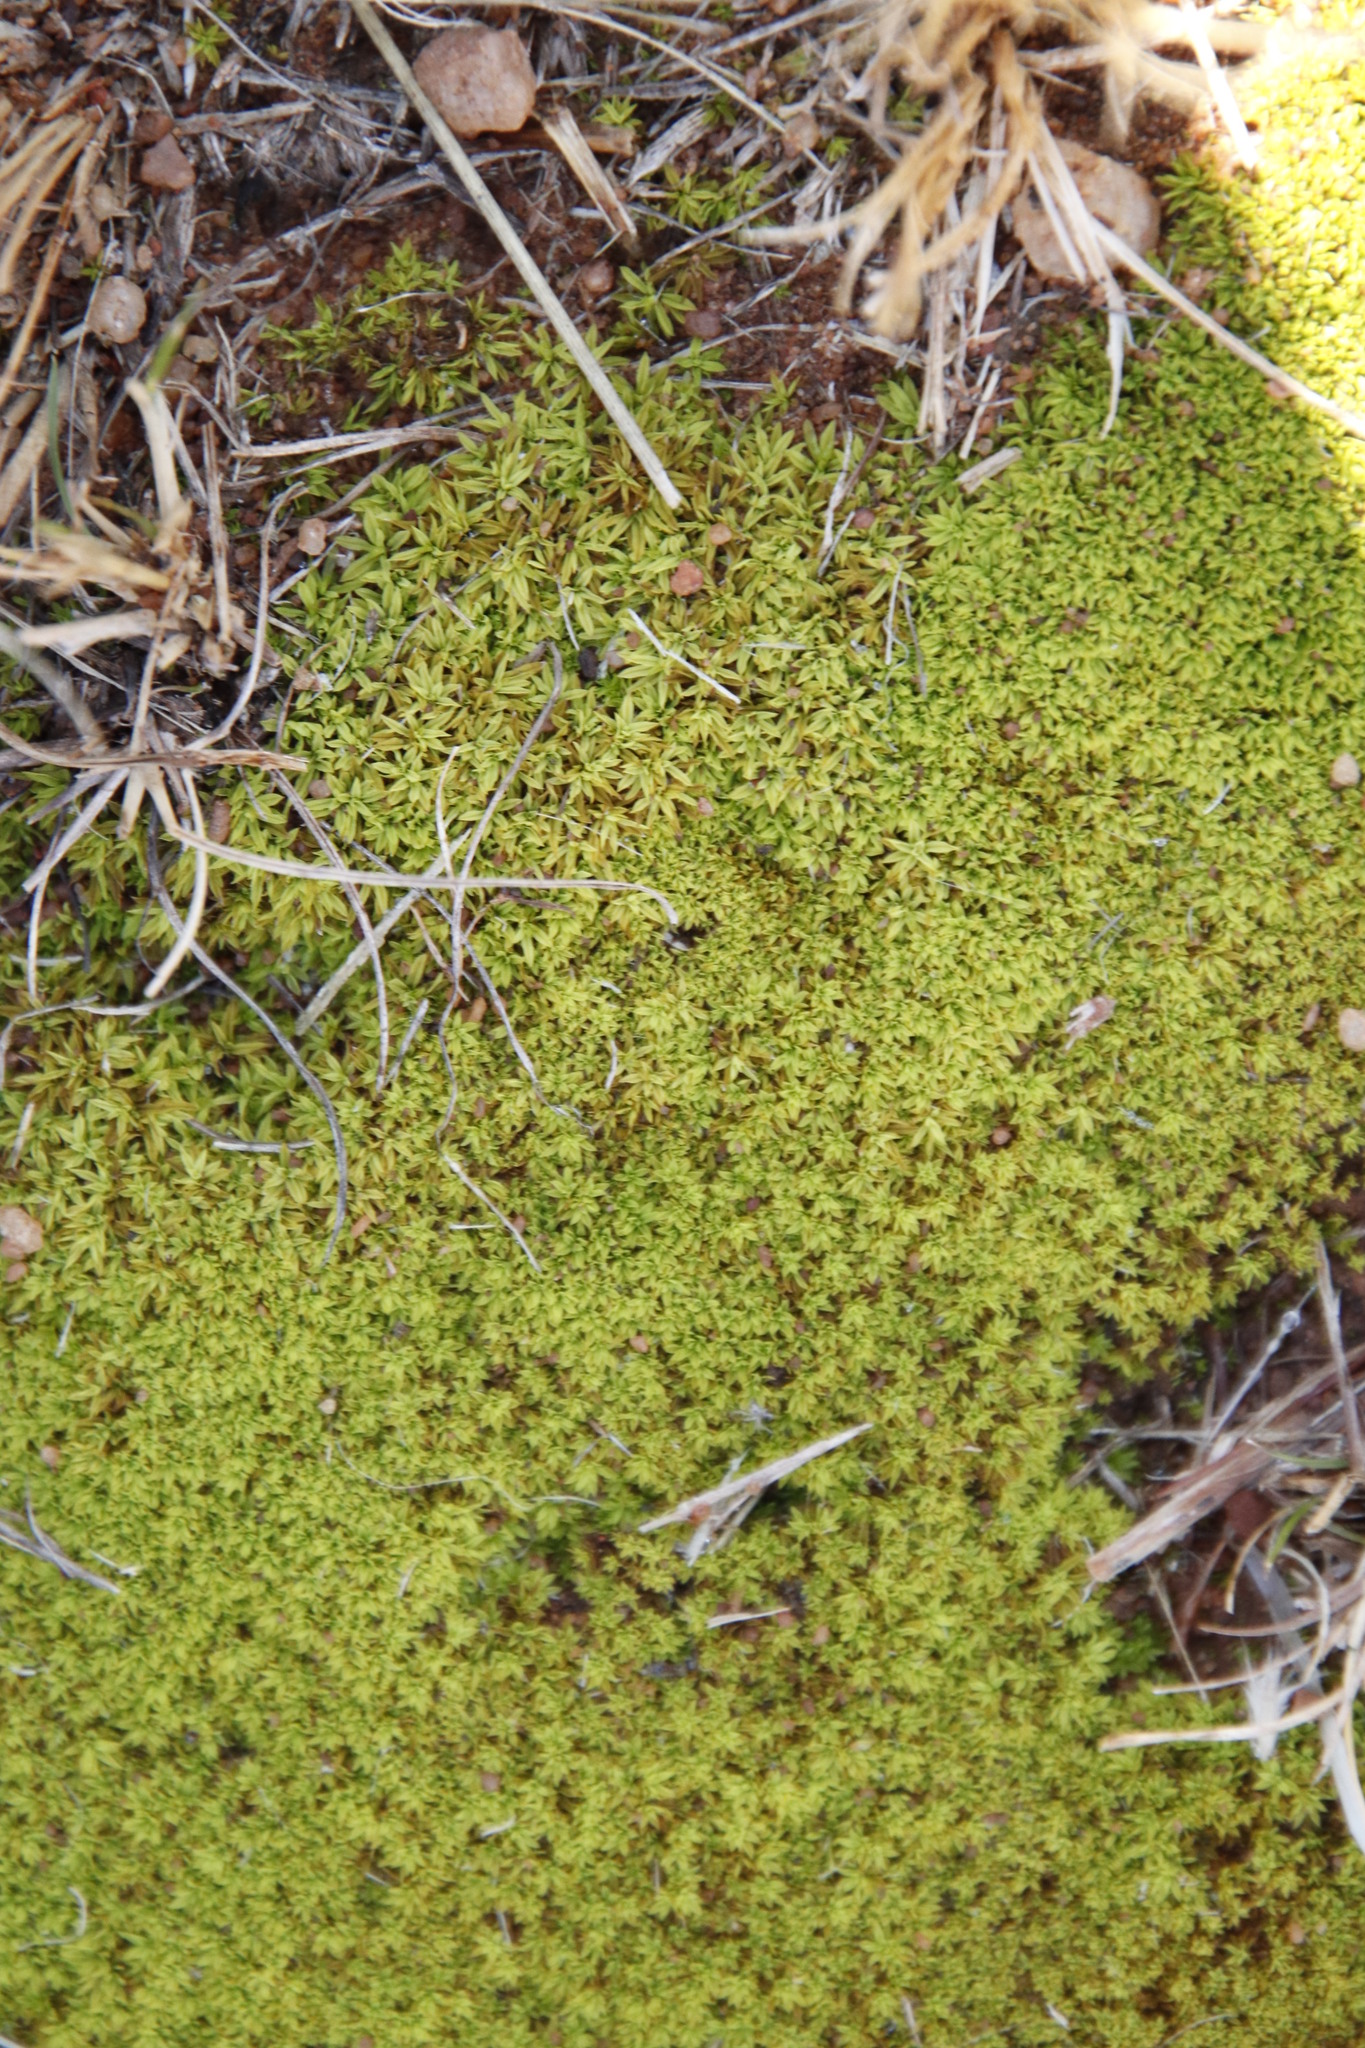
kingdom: Plantae
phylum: Bryophyta
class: Bryopsida
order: Pottiales
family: Pottiaceae
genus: Trichostomum
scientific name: Trichostomum brachydontium
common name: Variable crisp-moss
